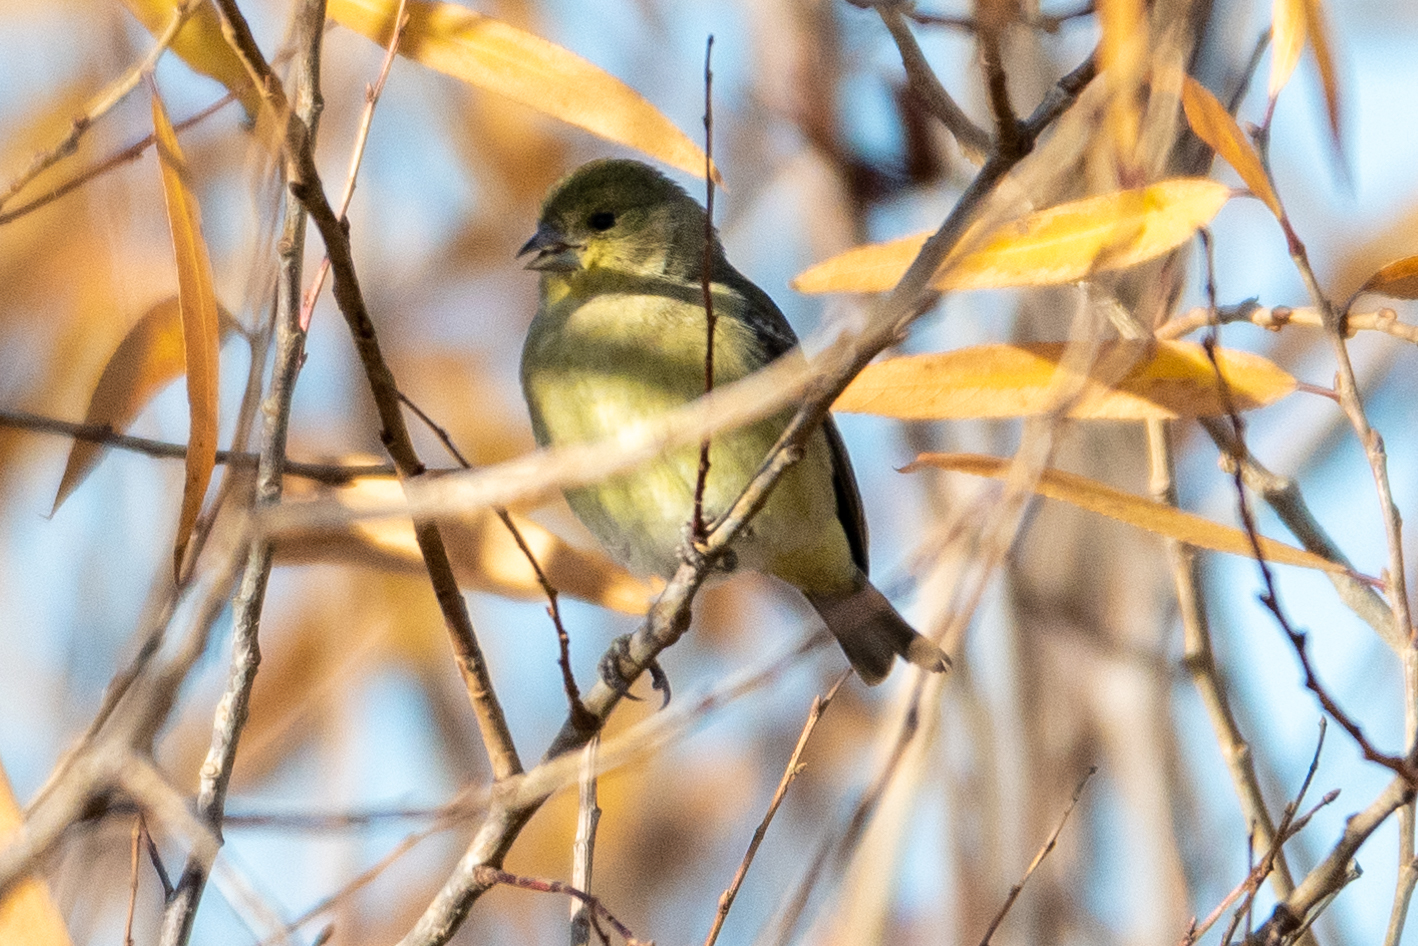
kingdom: Animalia
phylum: Chordata
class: Aves
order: Passeriformes
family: Fringillidae
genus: Spinus
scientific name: Spinus psaltria
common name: Lesser goldfinch
